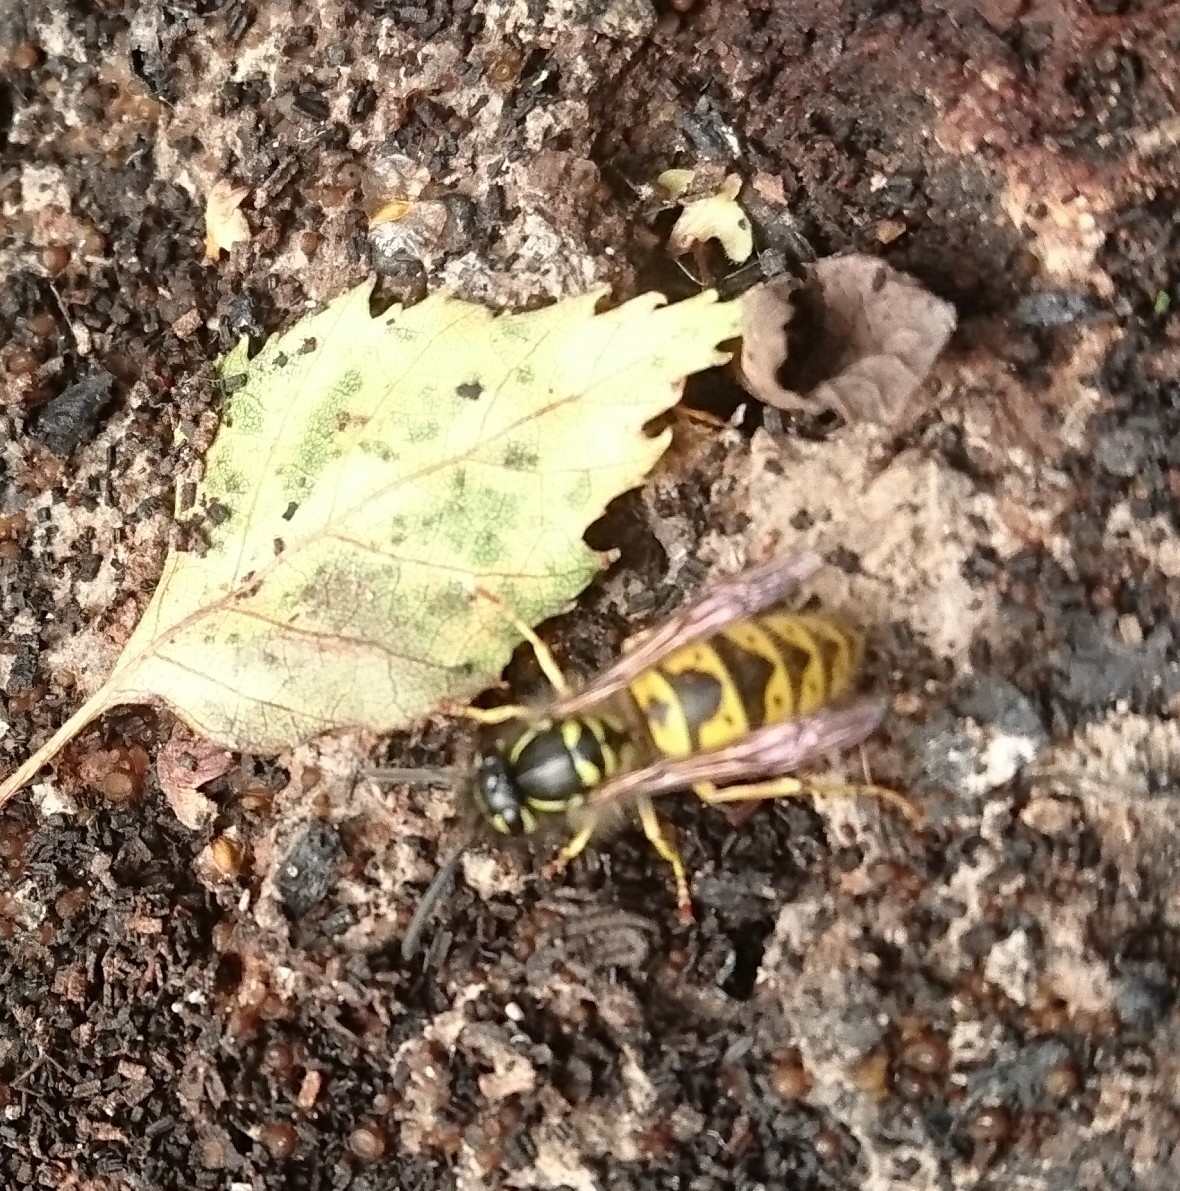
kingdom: Animalia
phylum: Arthropoda
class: Insecta
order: Hymenoptera
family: Vespidae
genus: Vespula
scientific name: Vespula vulgaris
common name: Common wasp
